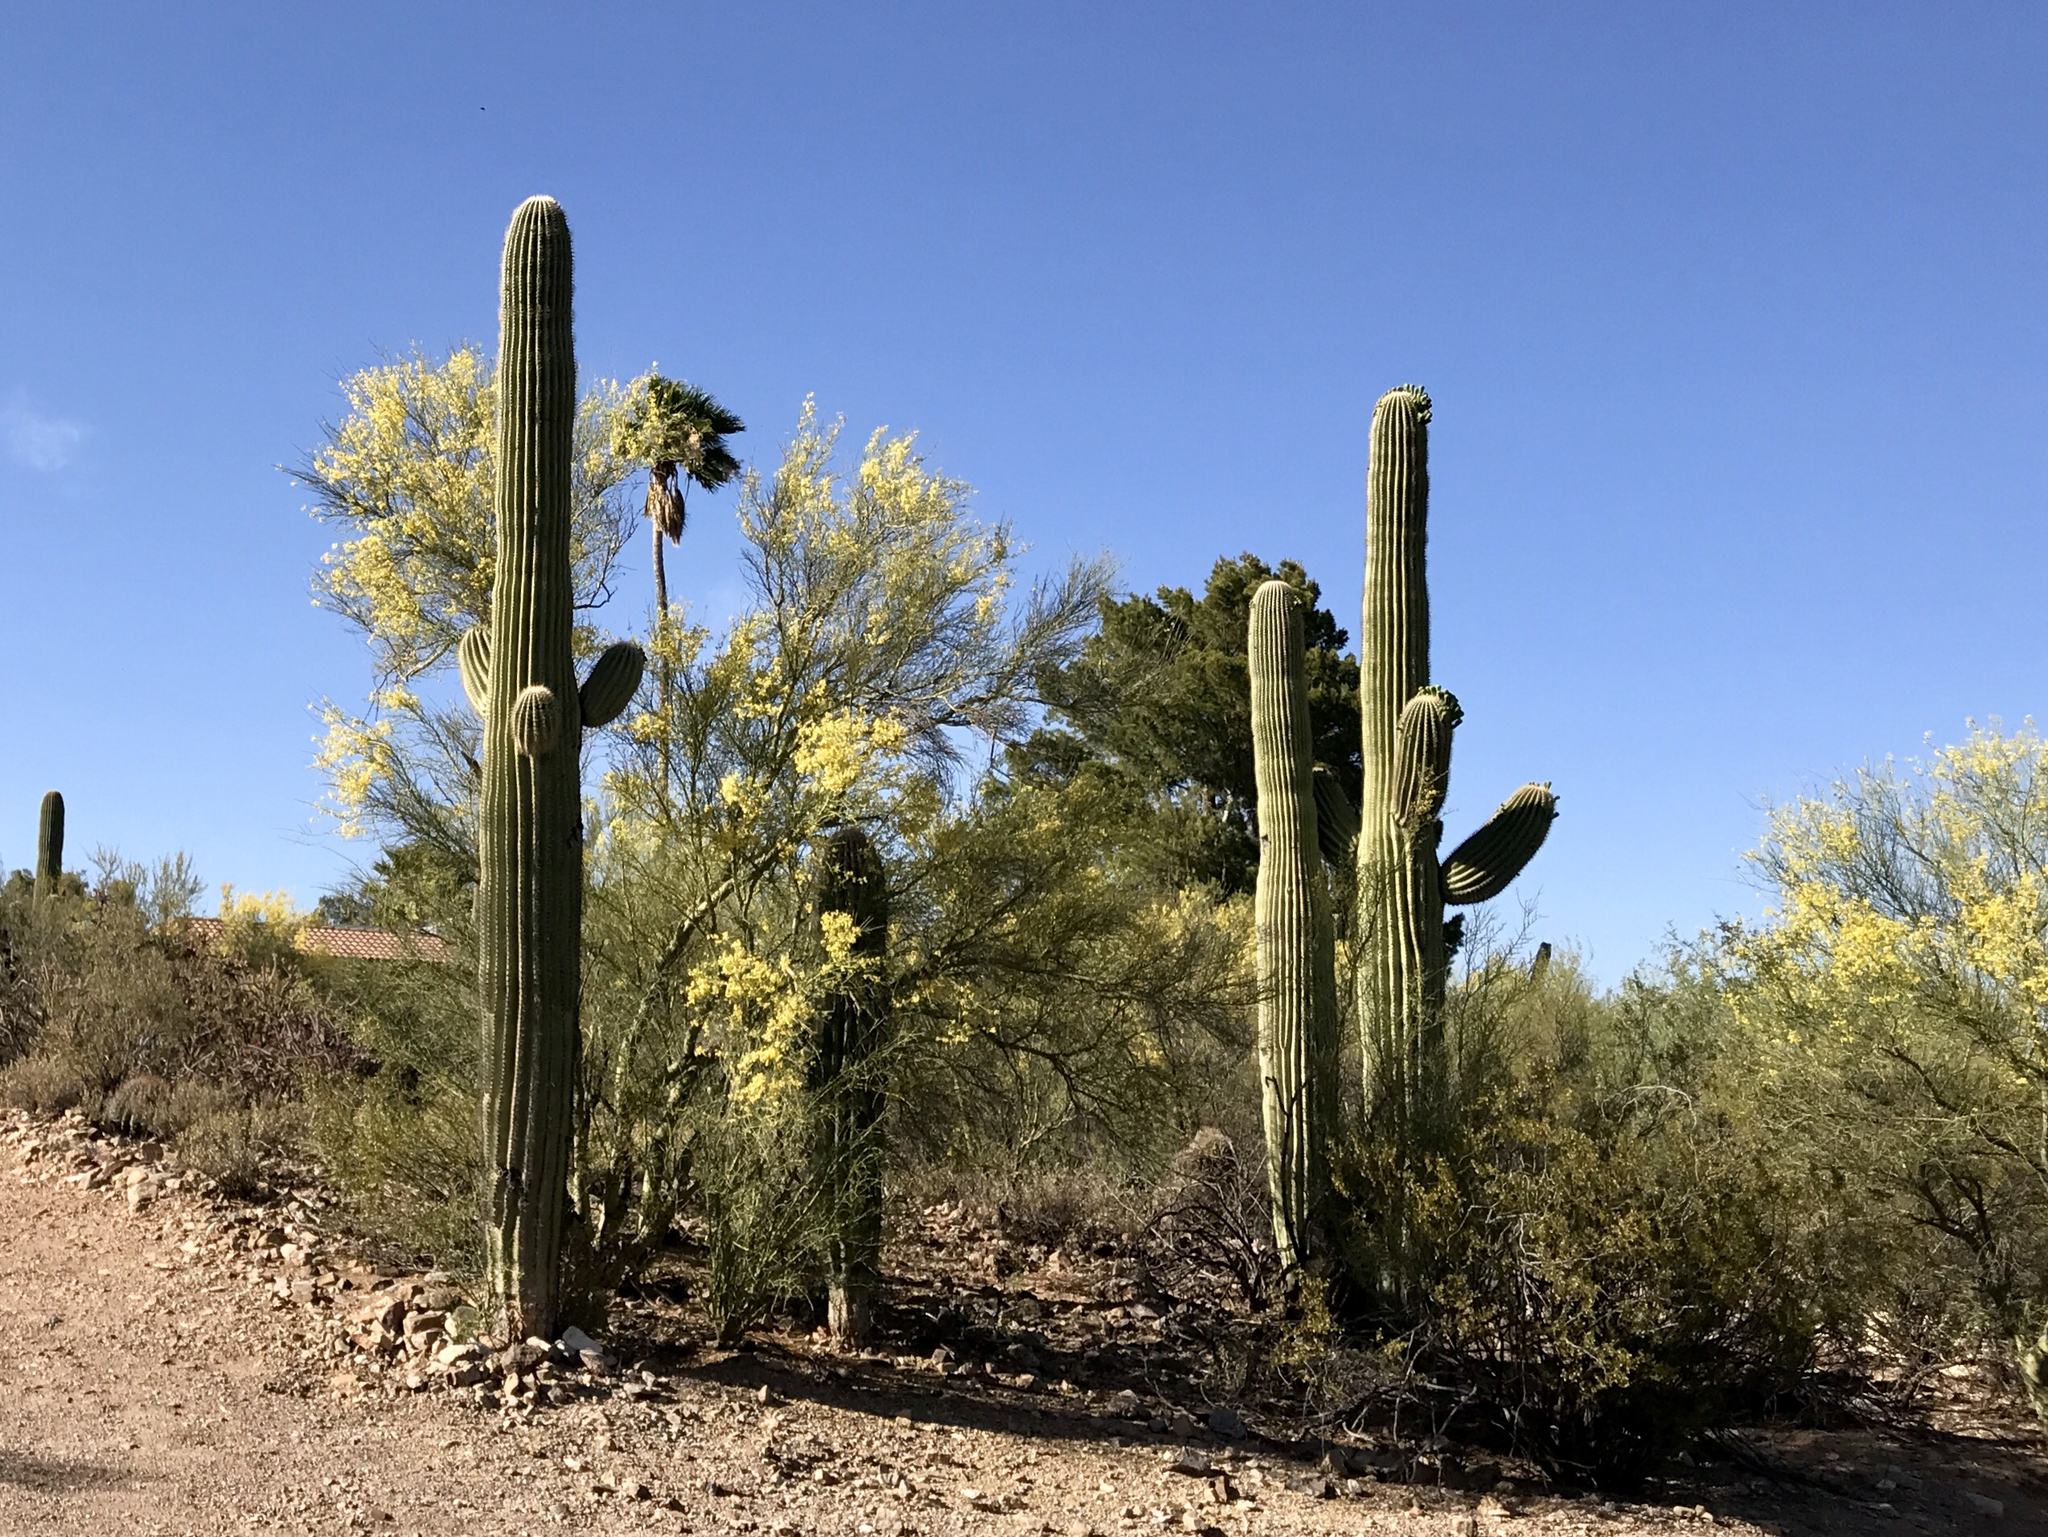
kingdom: Plantae
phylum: Tracheophyta
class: Magnoliopsida
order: Caryophyllales
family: Cactaceae
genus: Carnegiea
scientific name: Carnegiea gigantea
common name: Saguaro
